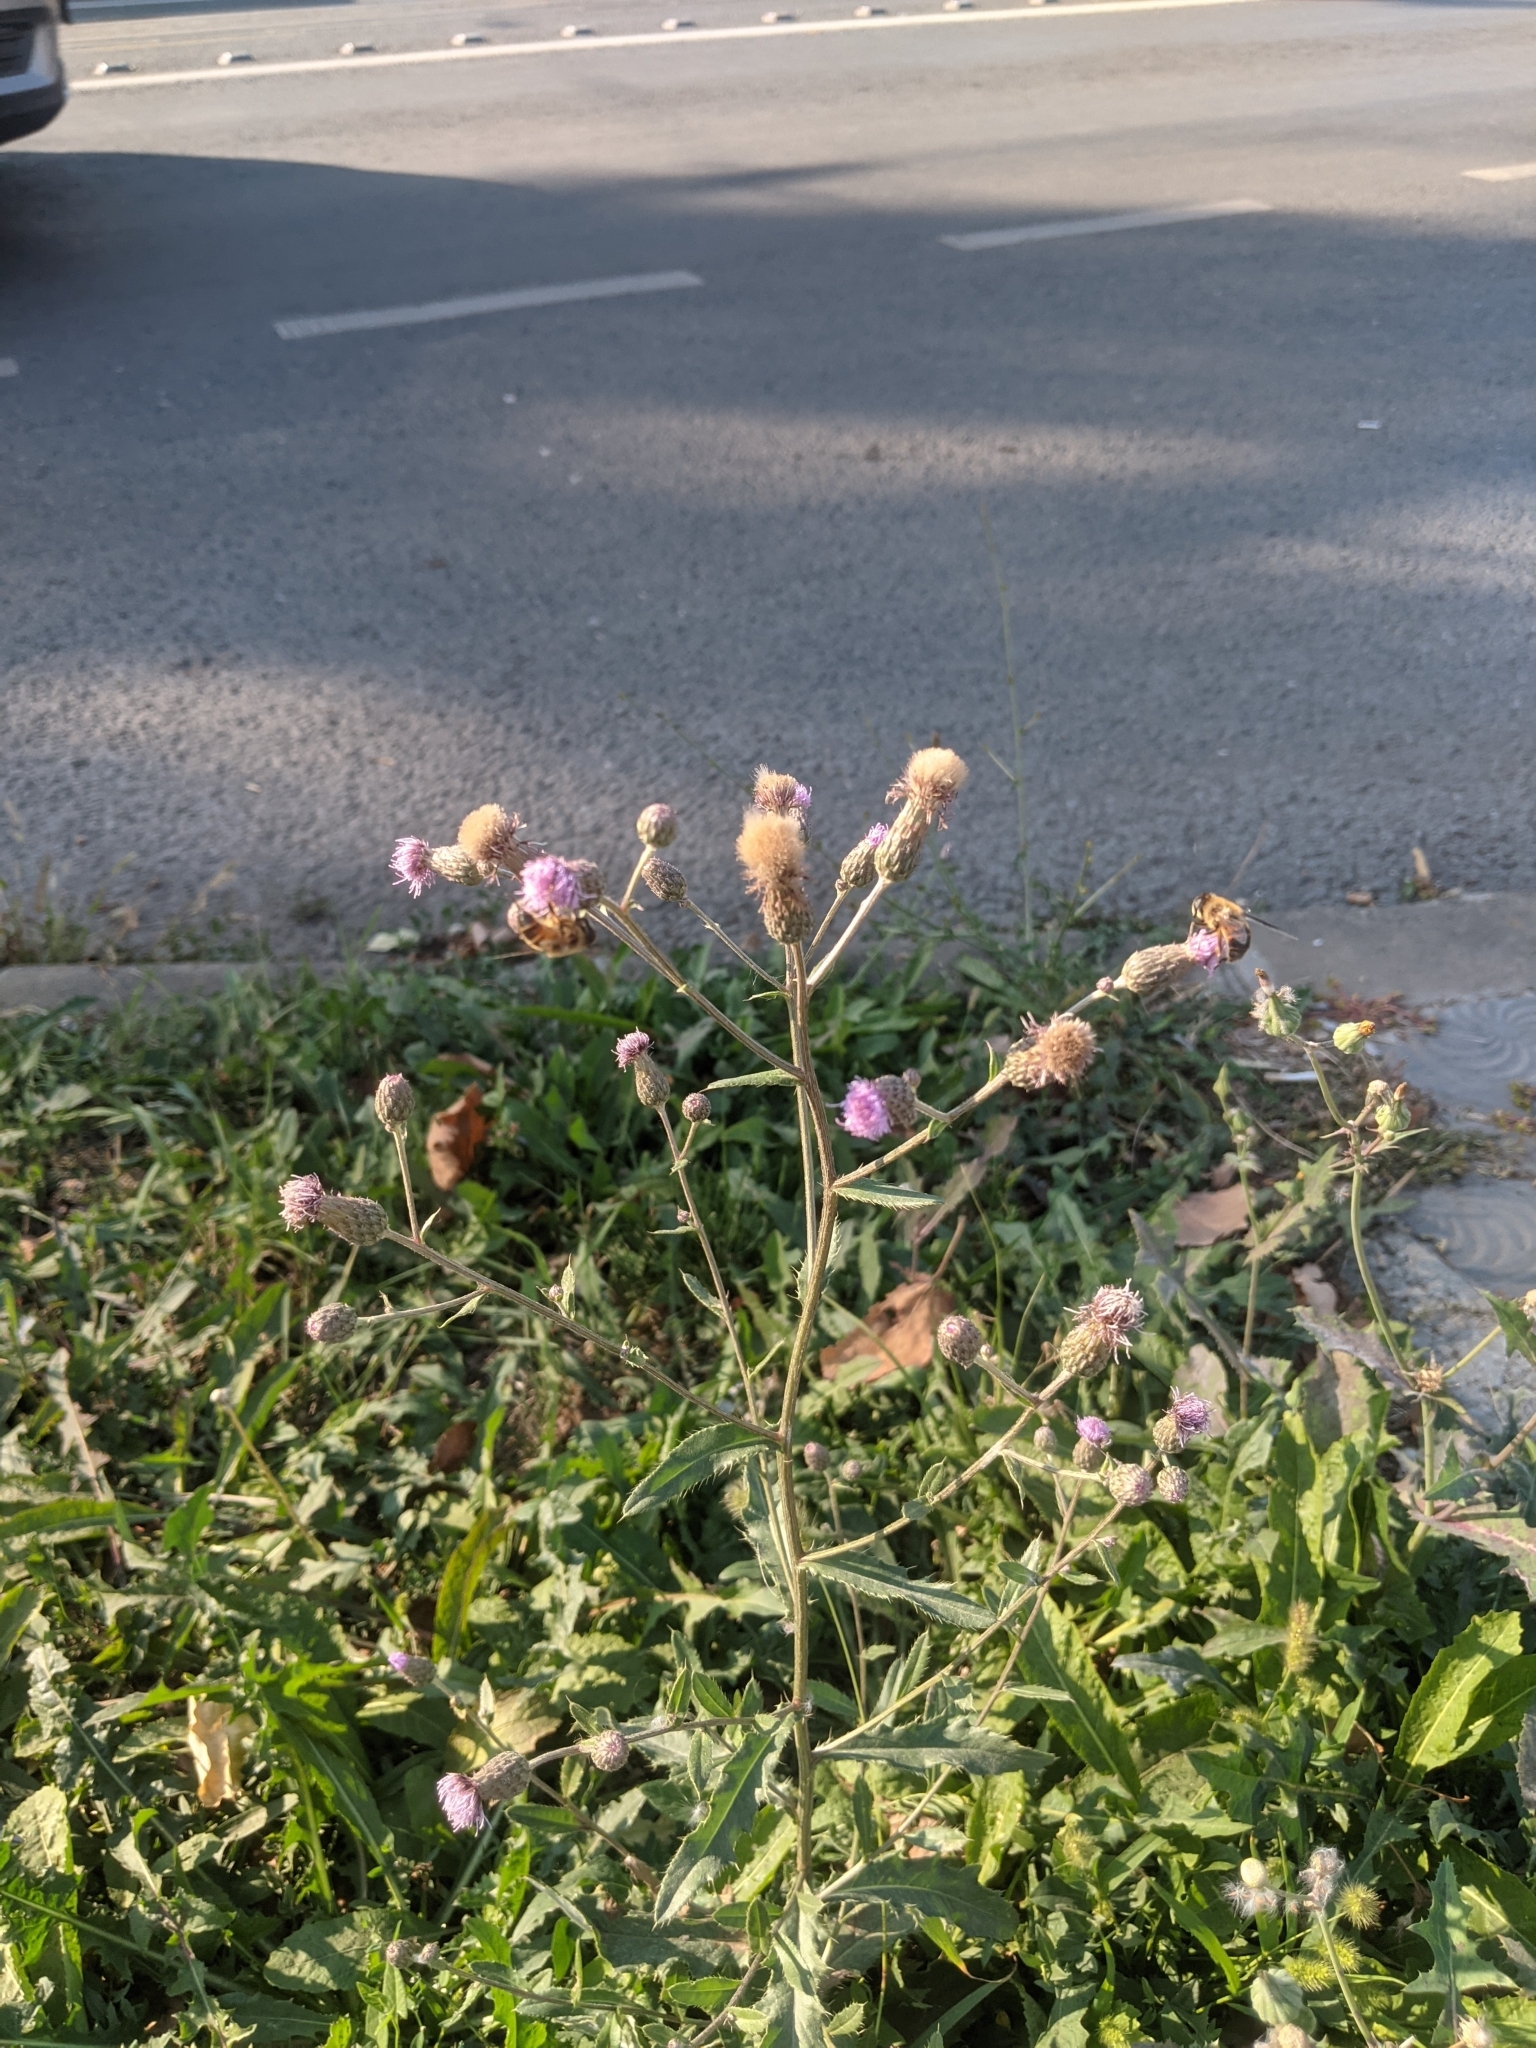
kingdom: Plantae
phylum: Tracheophyta
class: Magnoliopsida
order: Asterales
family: Asteraceae
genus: Cirsium
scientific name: Cirsium arvense
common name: Creeping thistle
